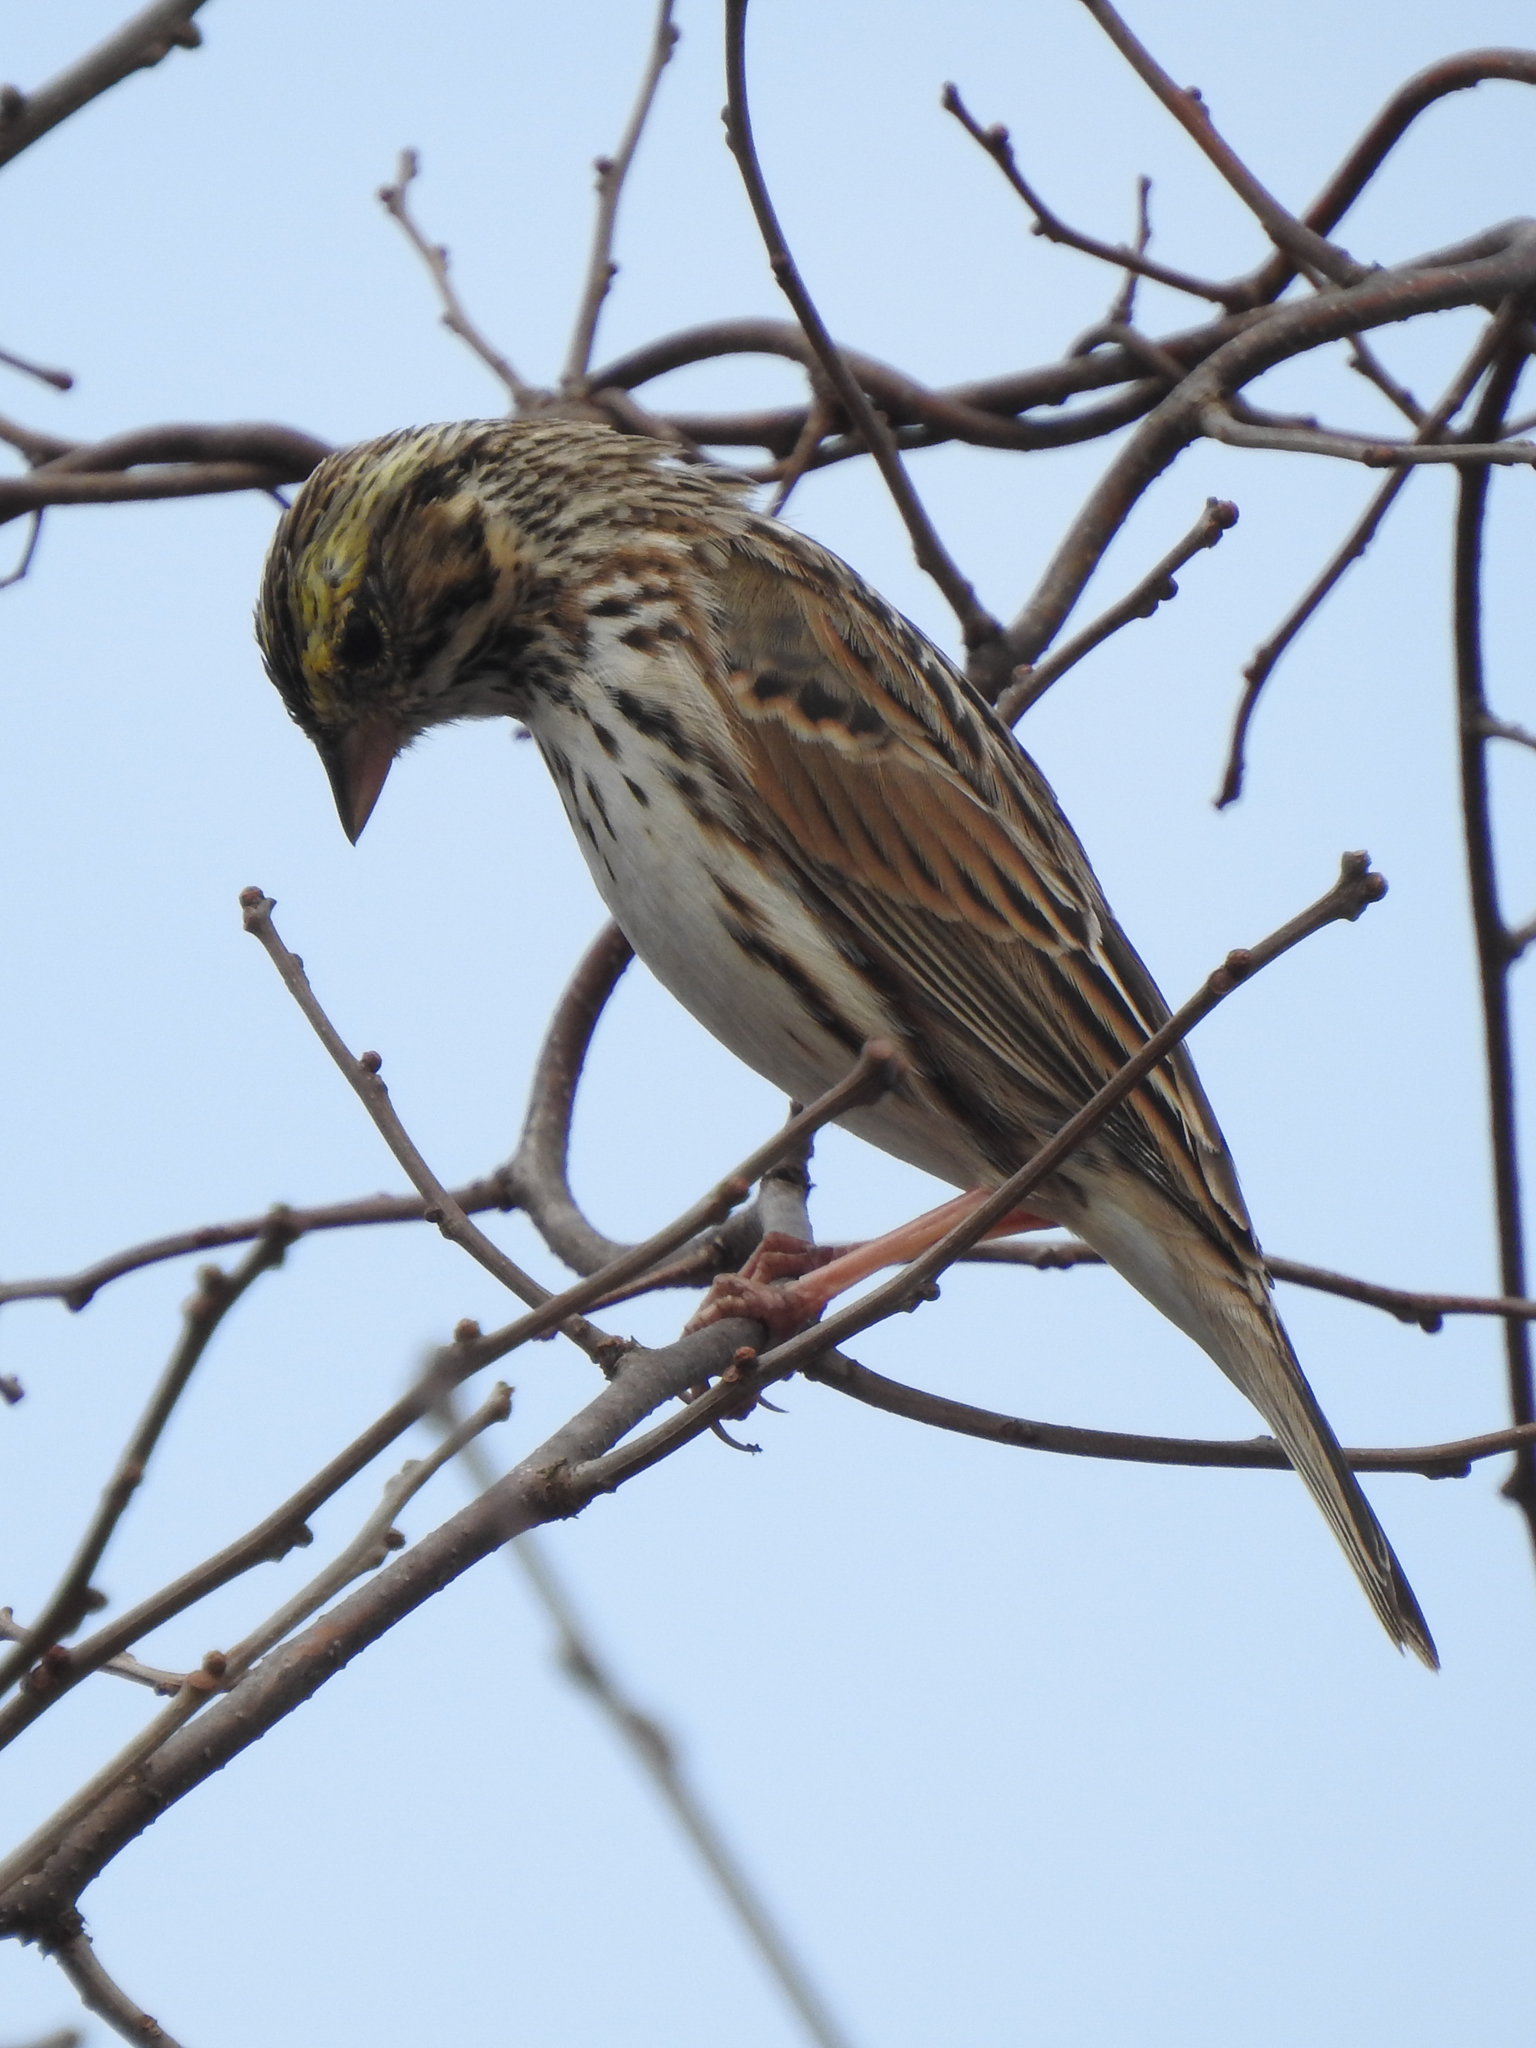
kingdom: Animalia
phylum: Chordata
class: Aves
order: Passeriformes
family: Passerellidae
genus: Passerculus
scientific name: Passerculus sandwichensis
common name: Savannah sparrow
